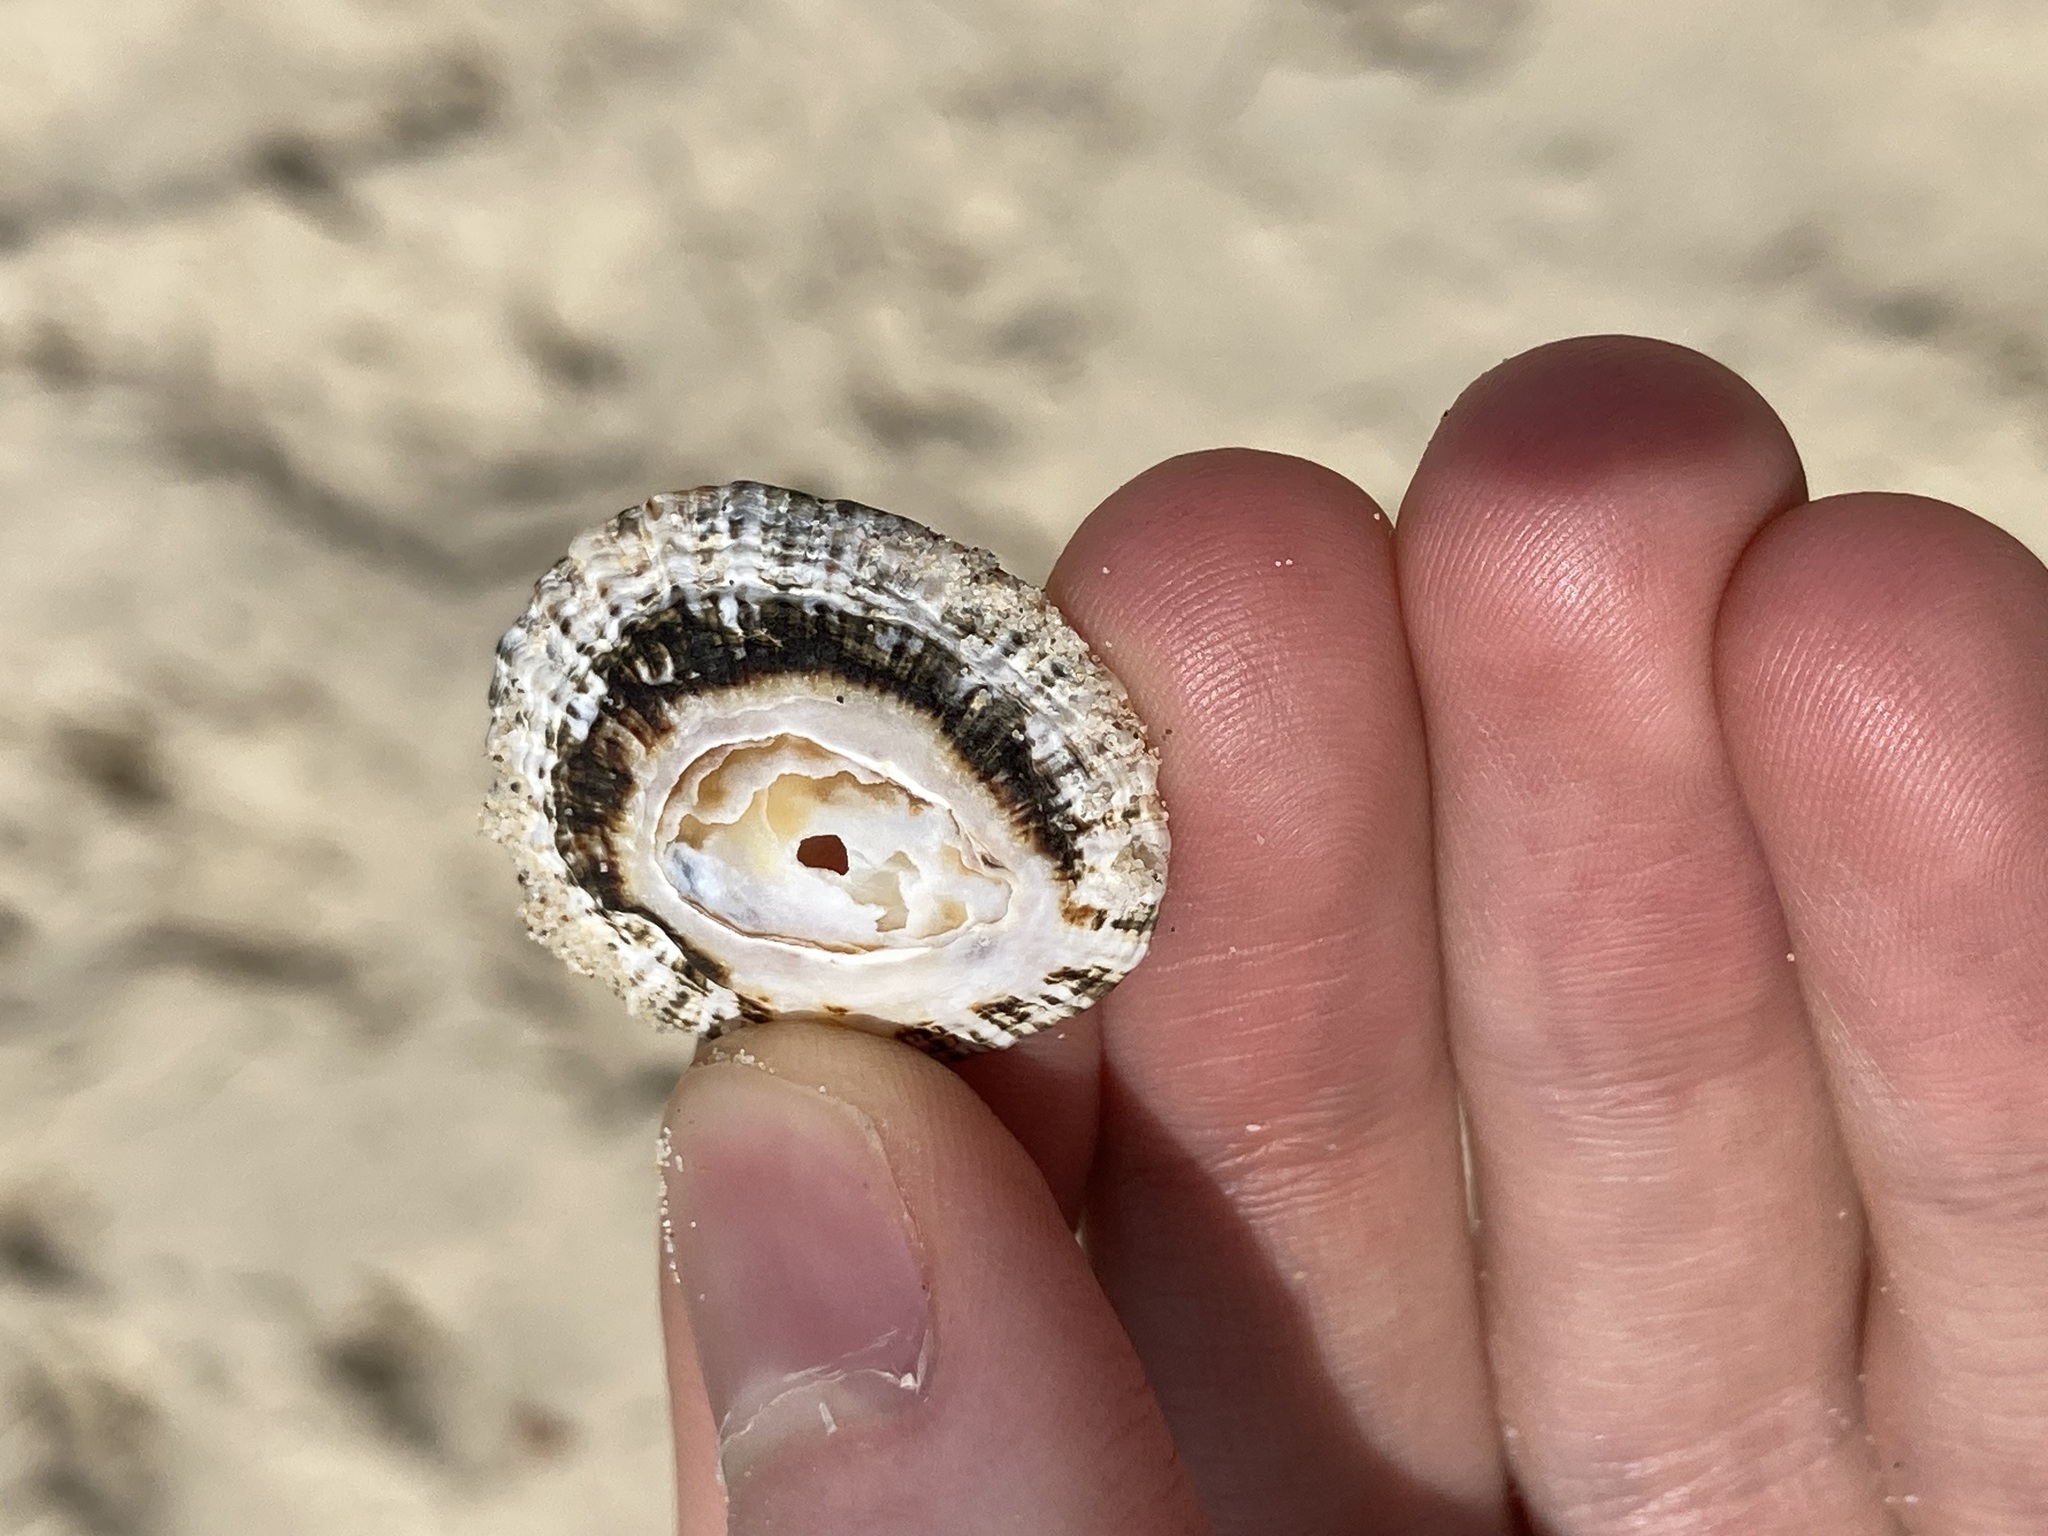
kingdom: Animalia
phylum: Mollusca
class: Gastropoda
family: Patellidae
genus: Scutellastra
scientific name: Scutellastra peronii
